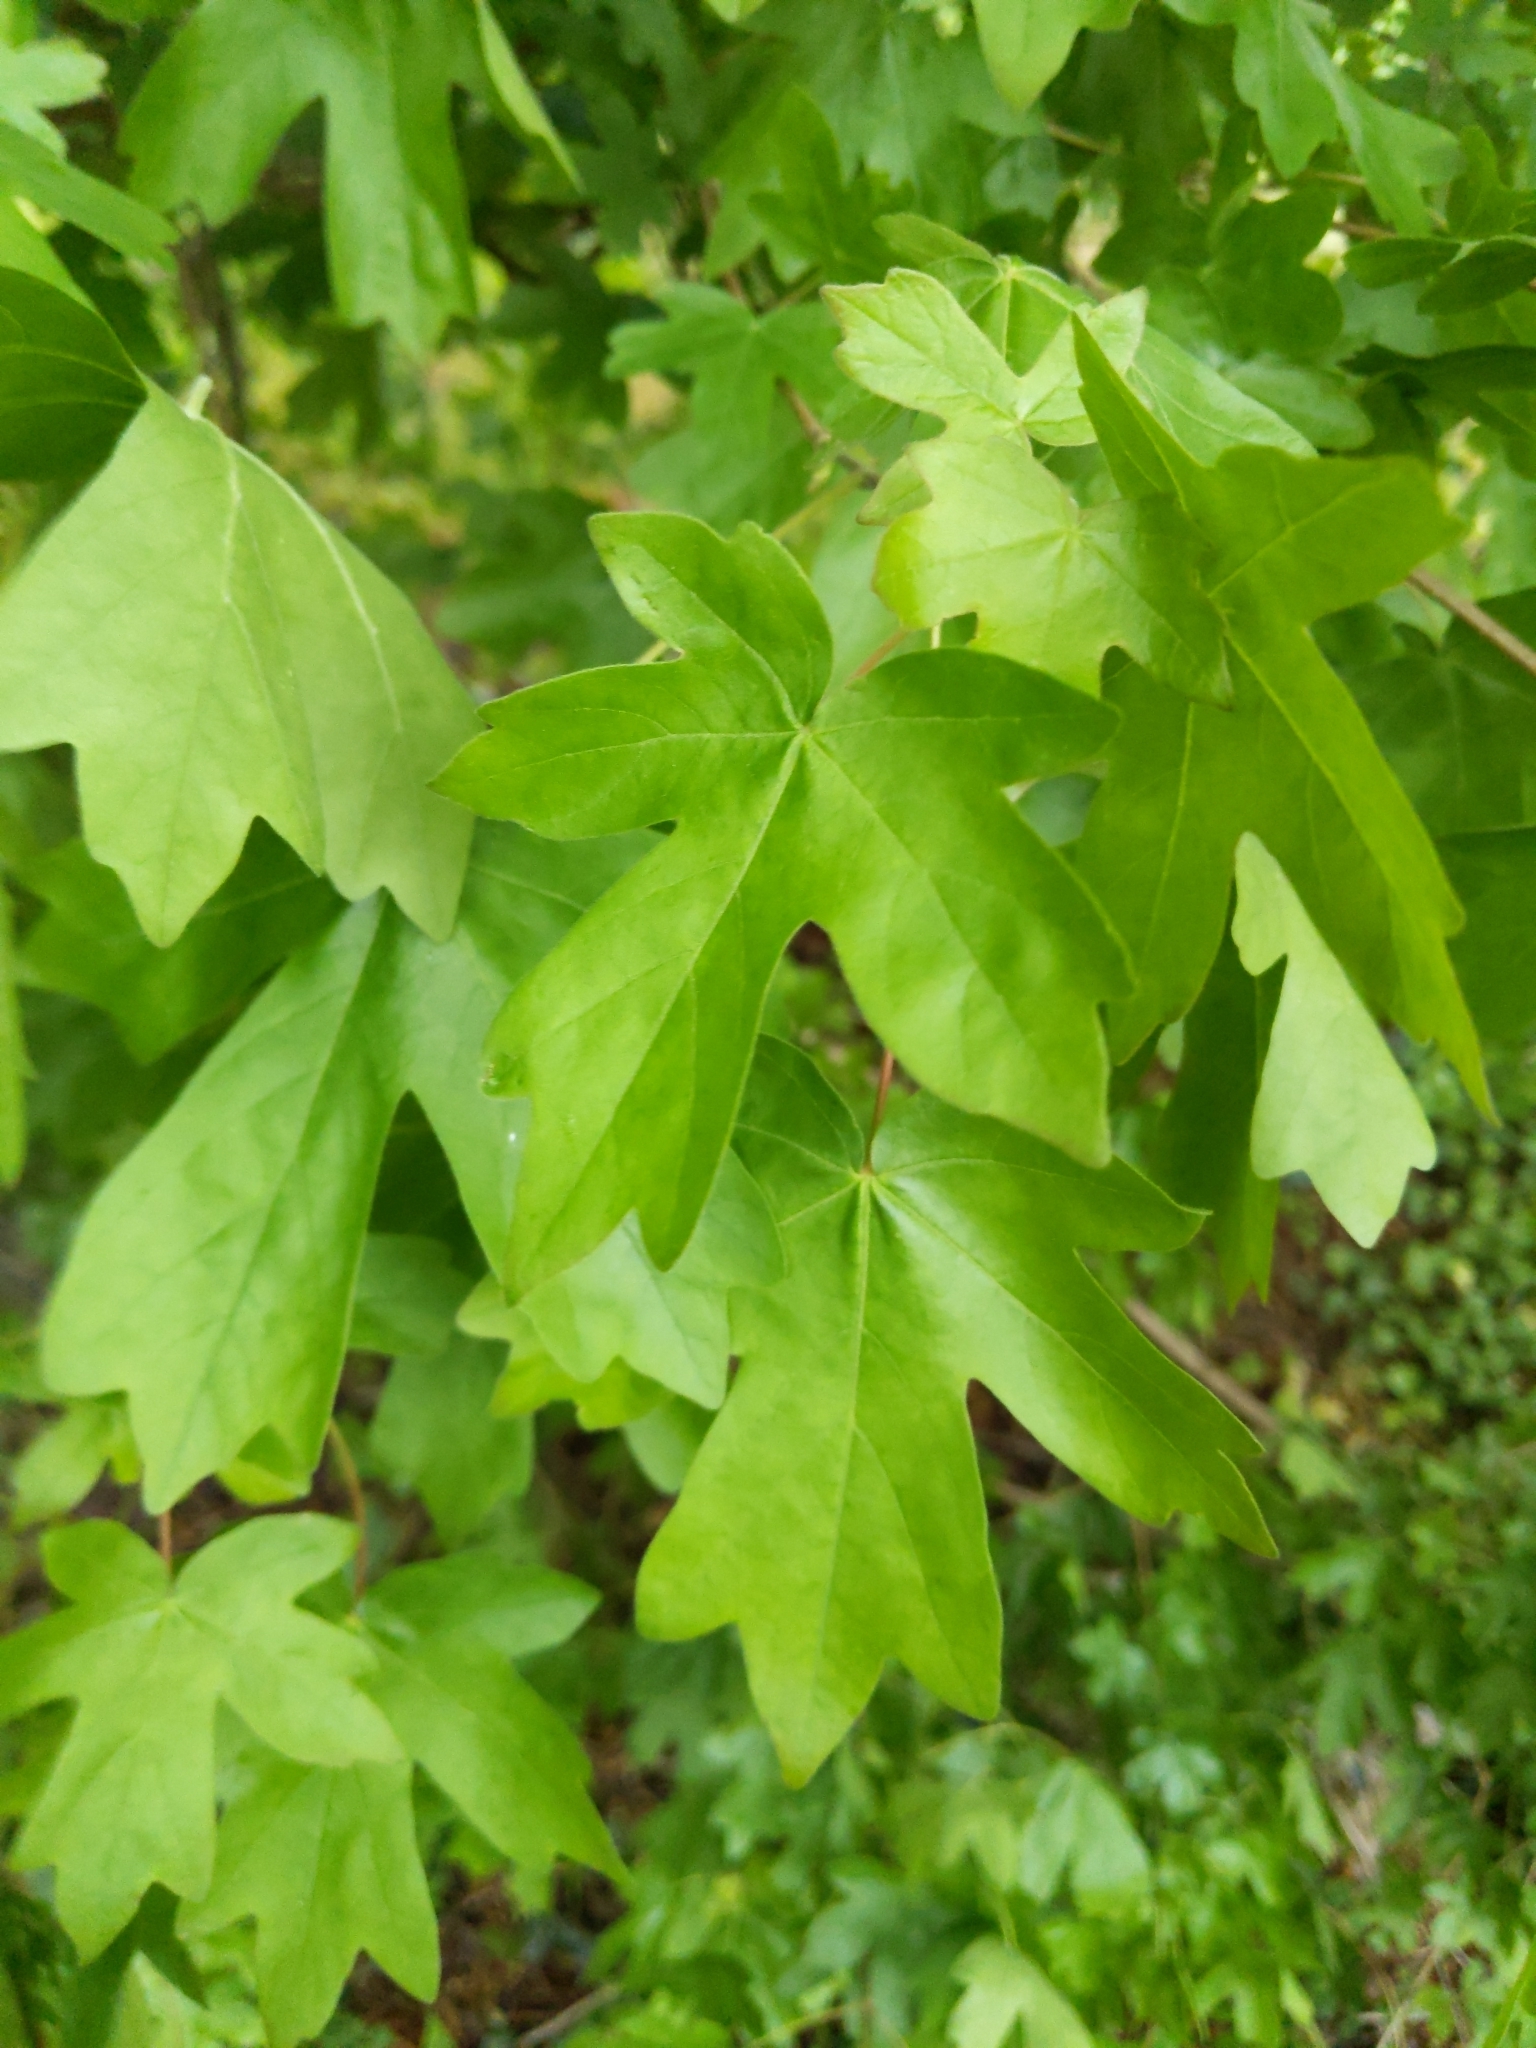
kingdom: Plantae
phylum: Tracheophyta
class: Magnoliopsida
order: Sapindales
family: Sapindaceae
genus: Acer
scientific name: Acer campestre
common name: Field maple
